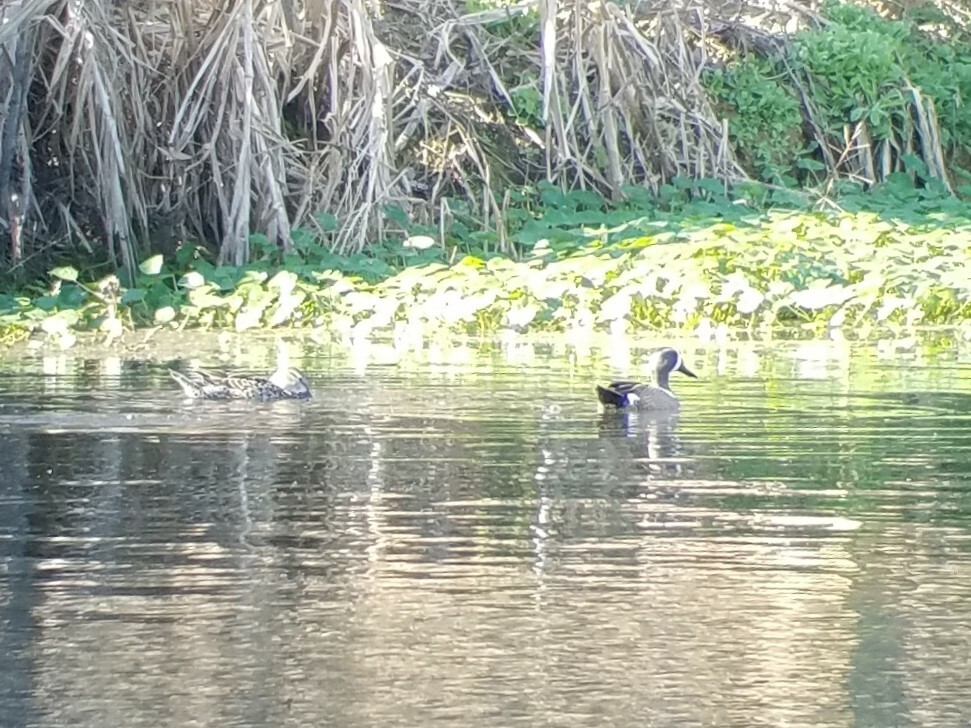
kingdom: Animalia
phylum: Chordata
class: Aves
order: Anseriformes
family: Anatidae
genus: Spatula
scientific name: Spatula discors
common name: Blue-winged teal
